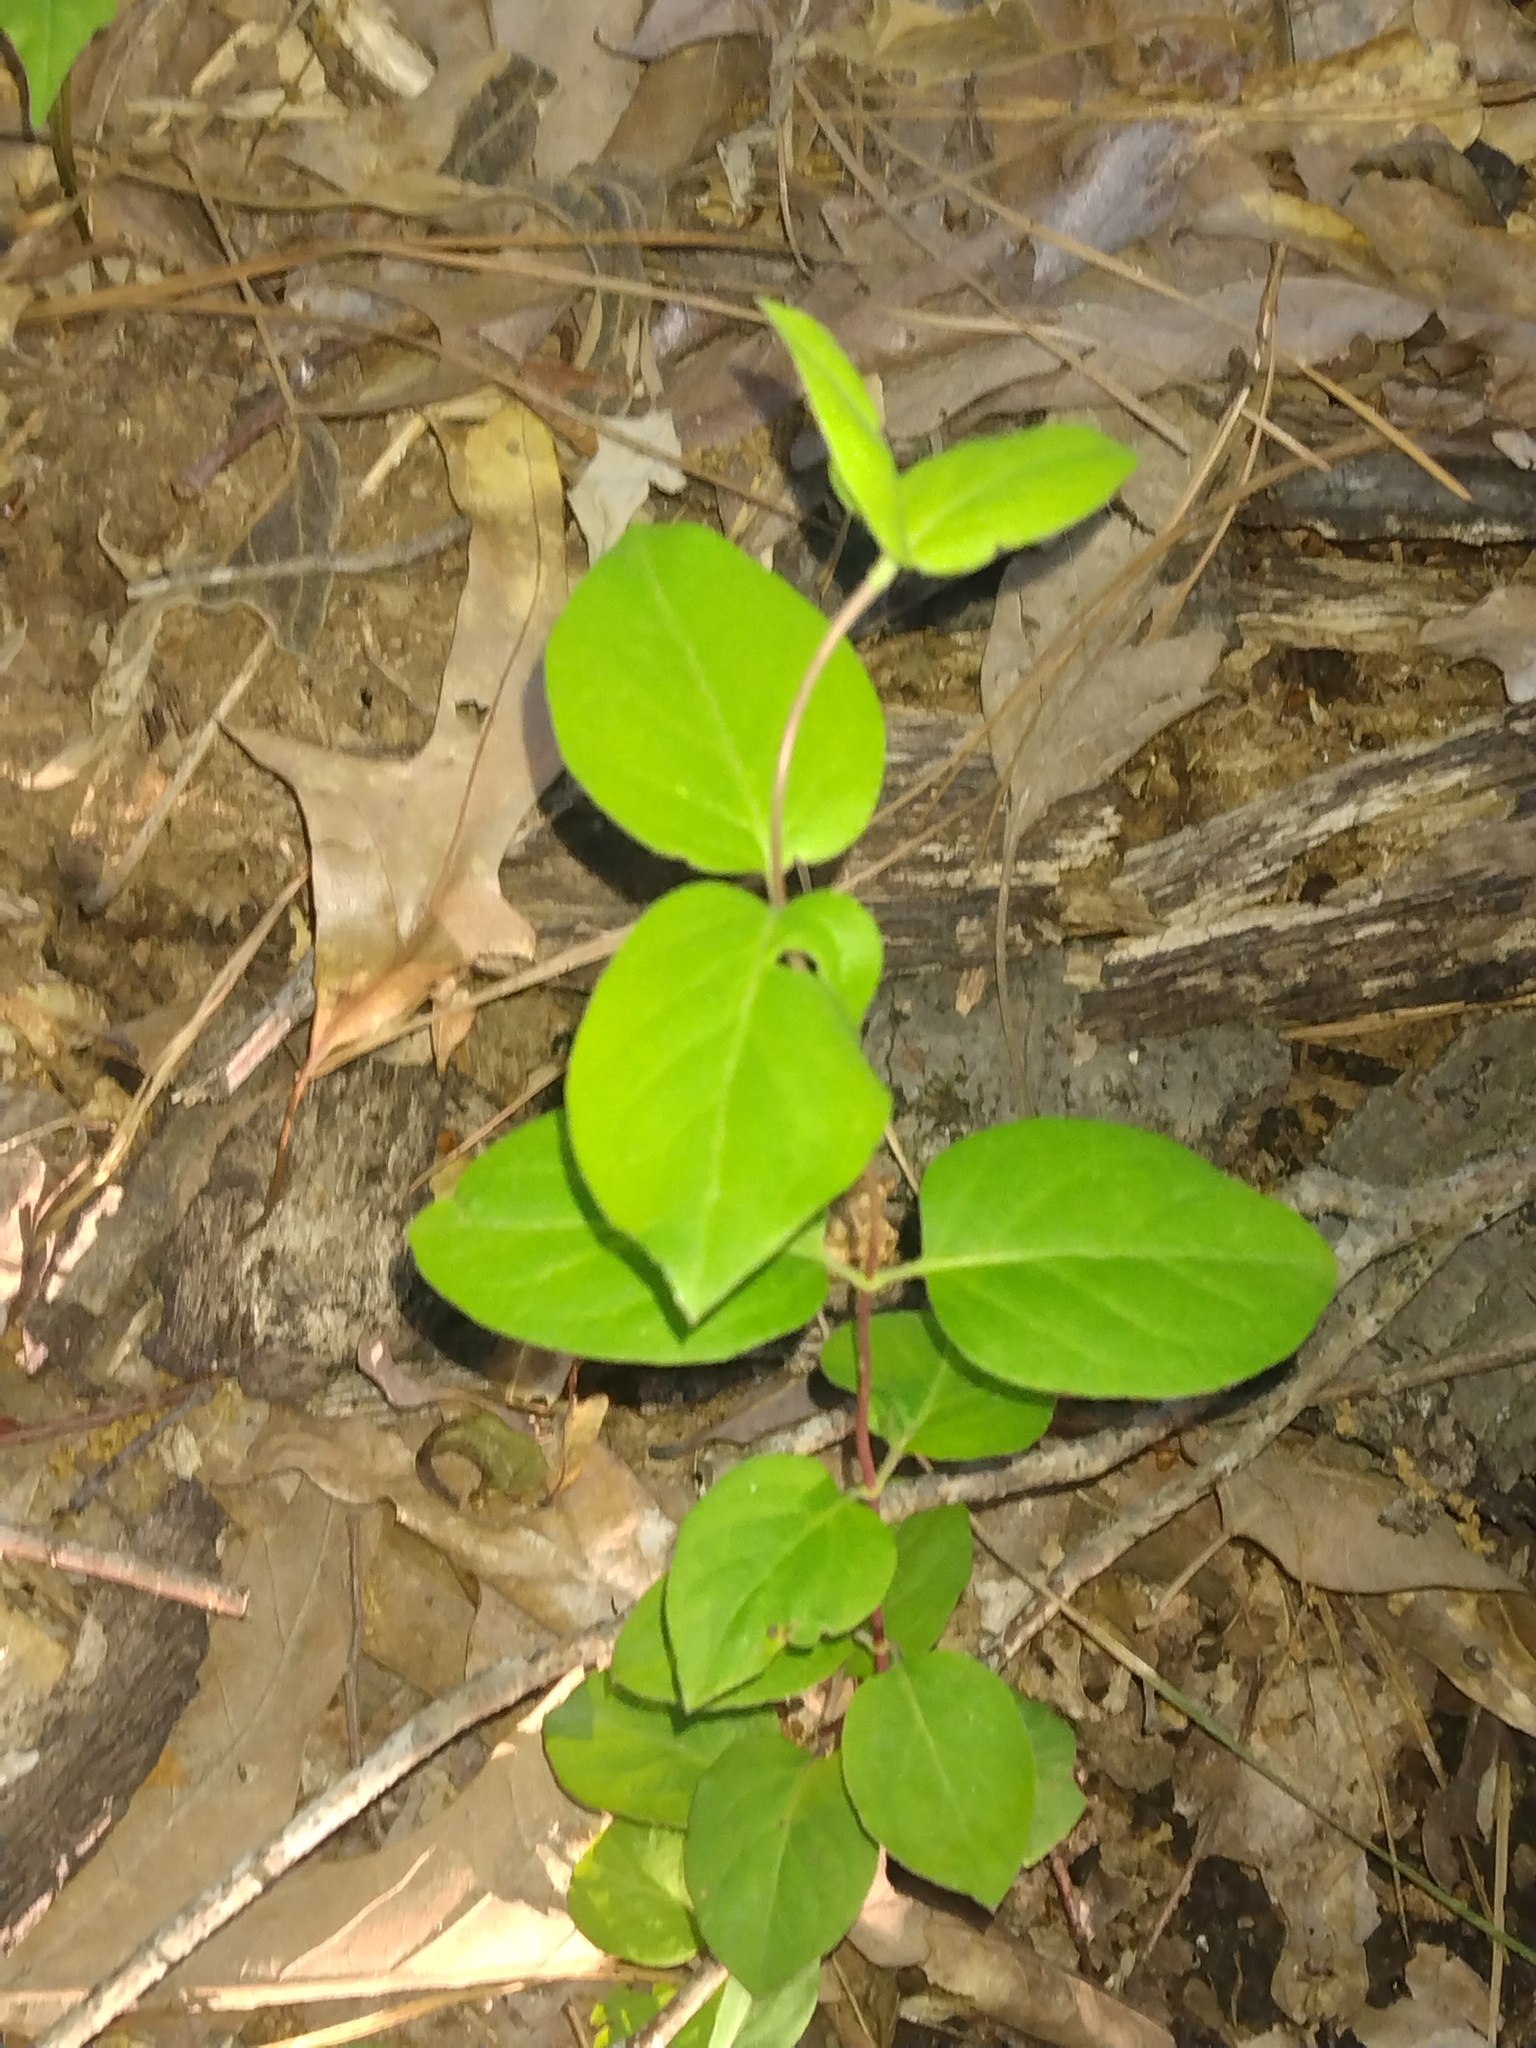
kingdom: Plantae
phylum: Tracheophyta
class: Magnoliopsida
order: Dipsacales
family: Caprifoliaceae
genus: Lonicera
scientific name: Lonicera japonica
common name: Japanese honeysuckle
